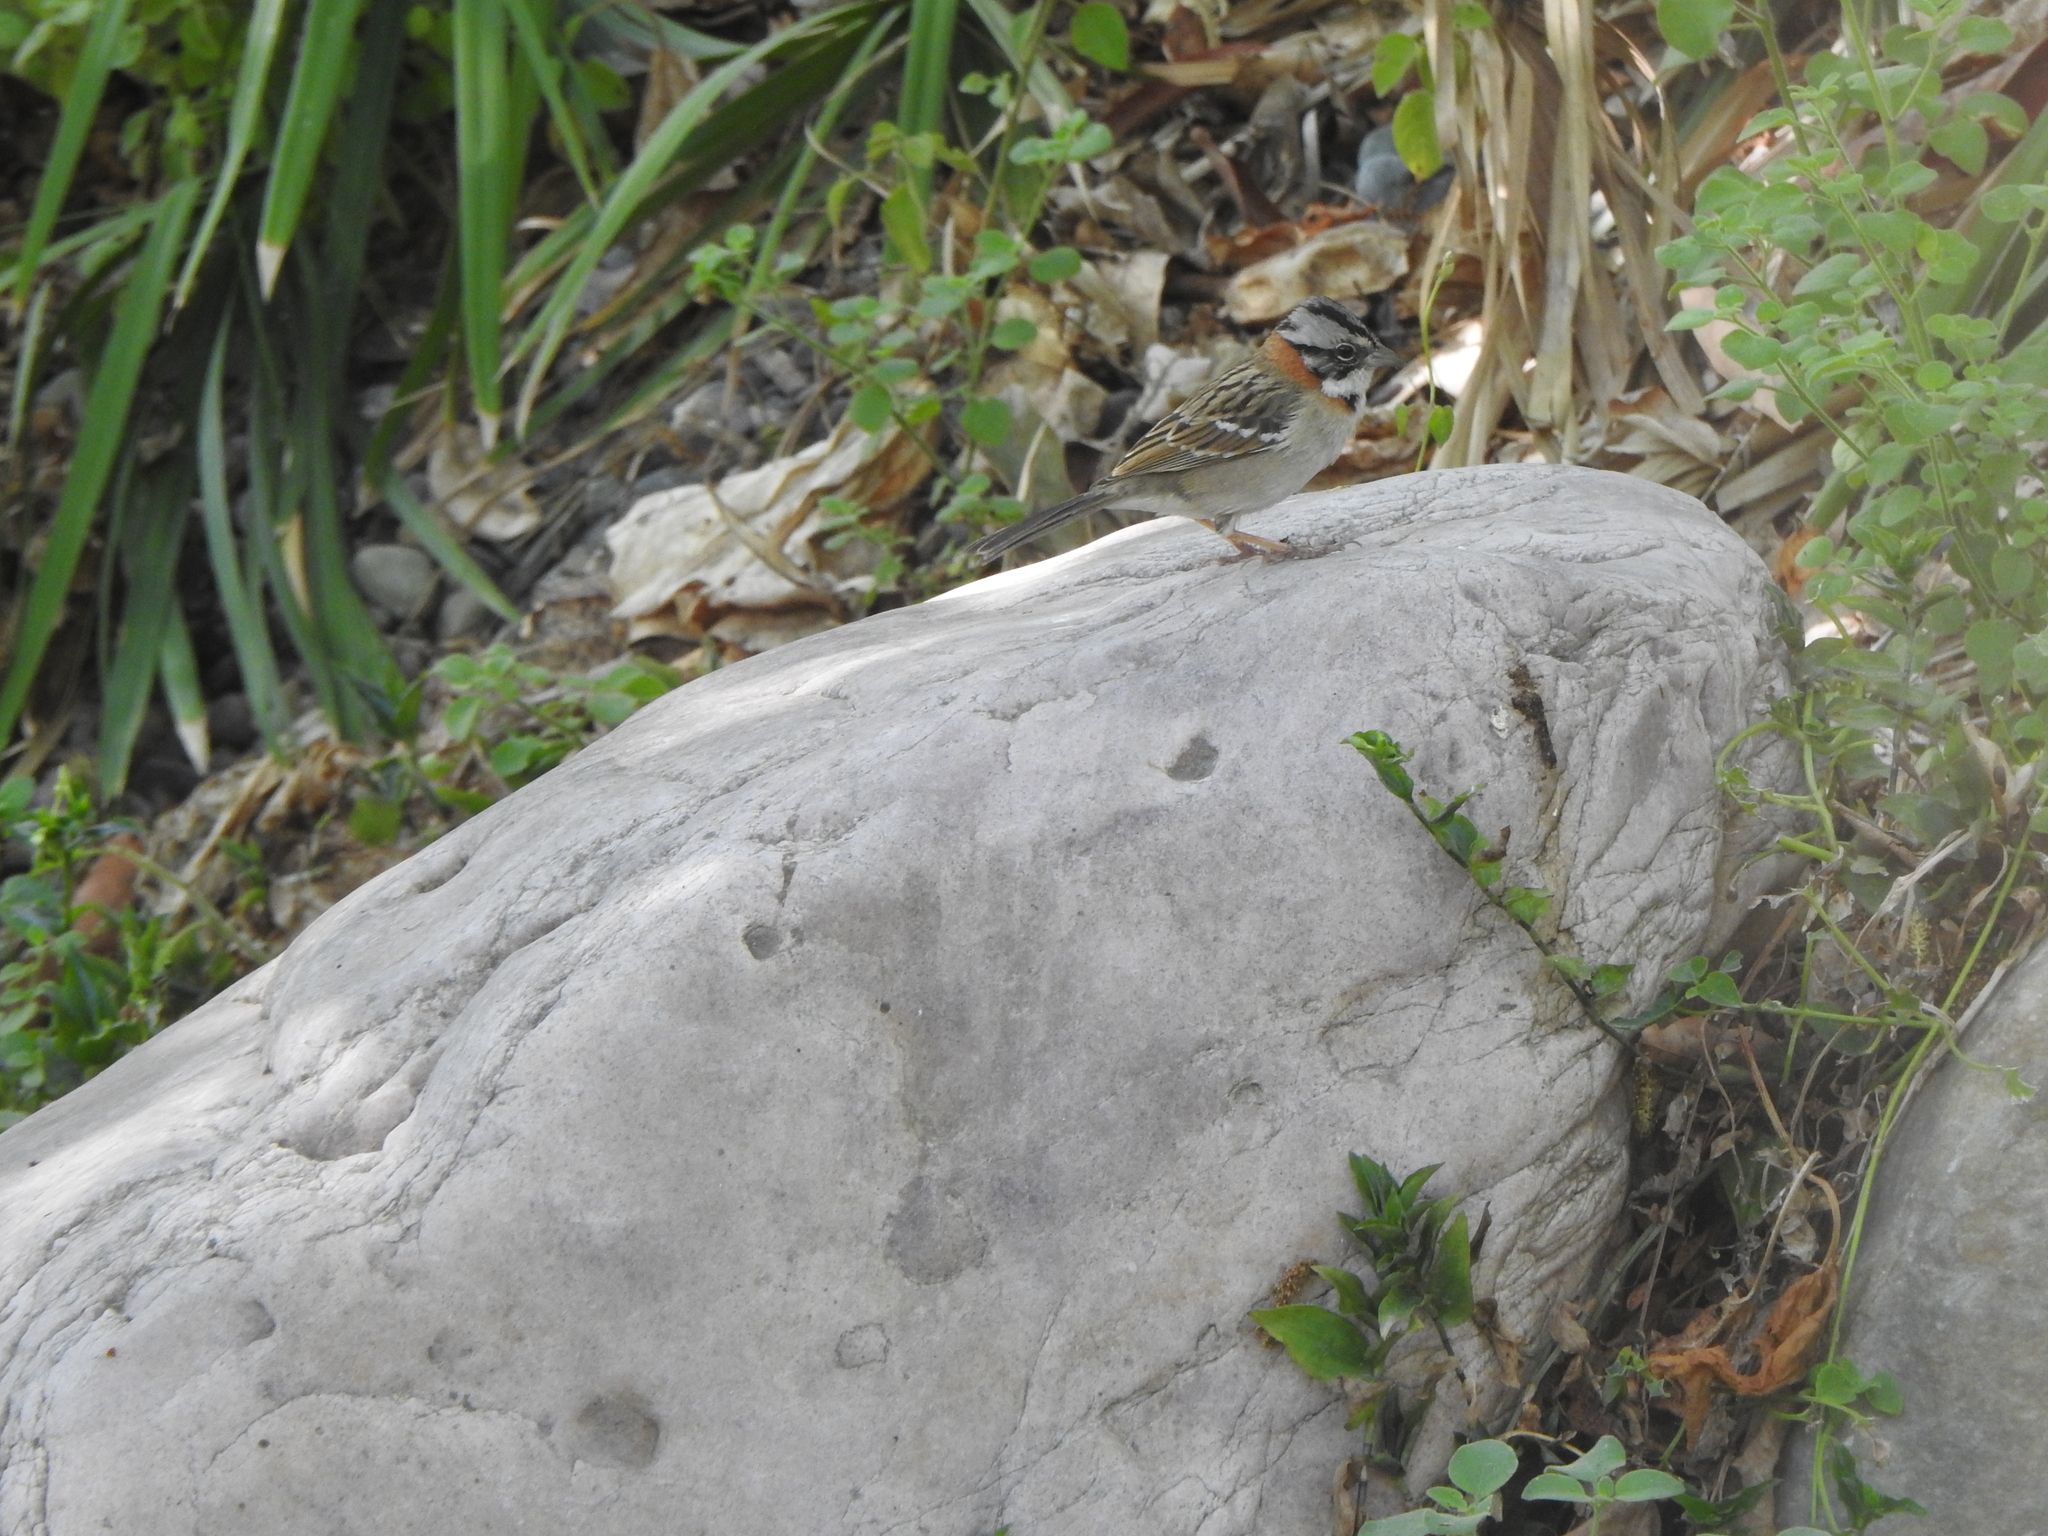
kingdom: Animalia
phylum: Chordata
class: Aves
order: Passeriformes
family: Passerellidae
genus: Zonotrichia
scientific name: Zonotrichia capensis
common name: Rufous-collared sparrow
